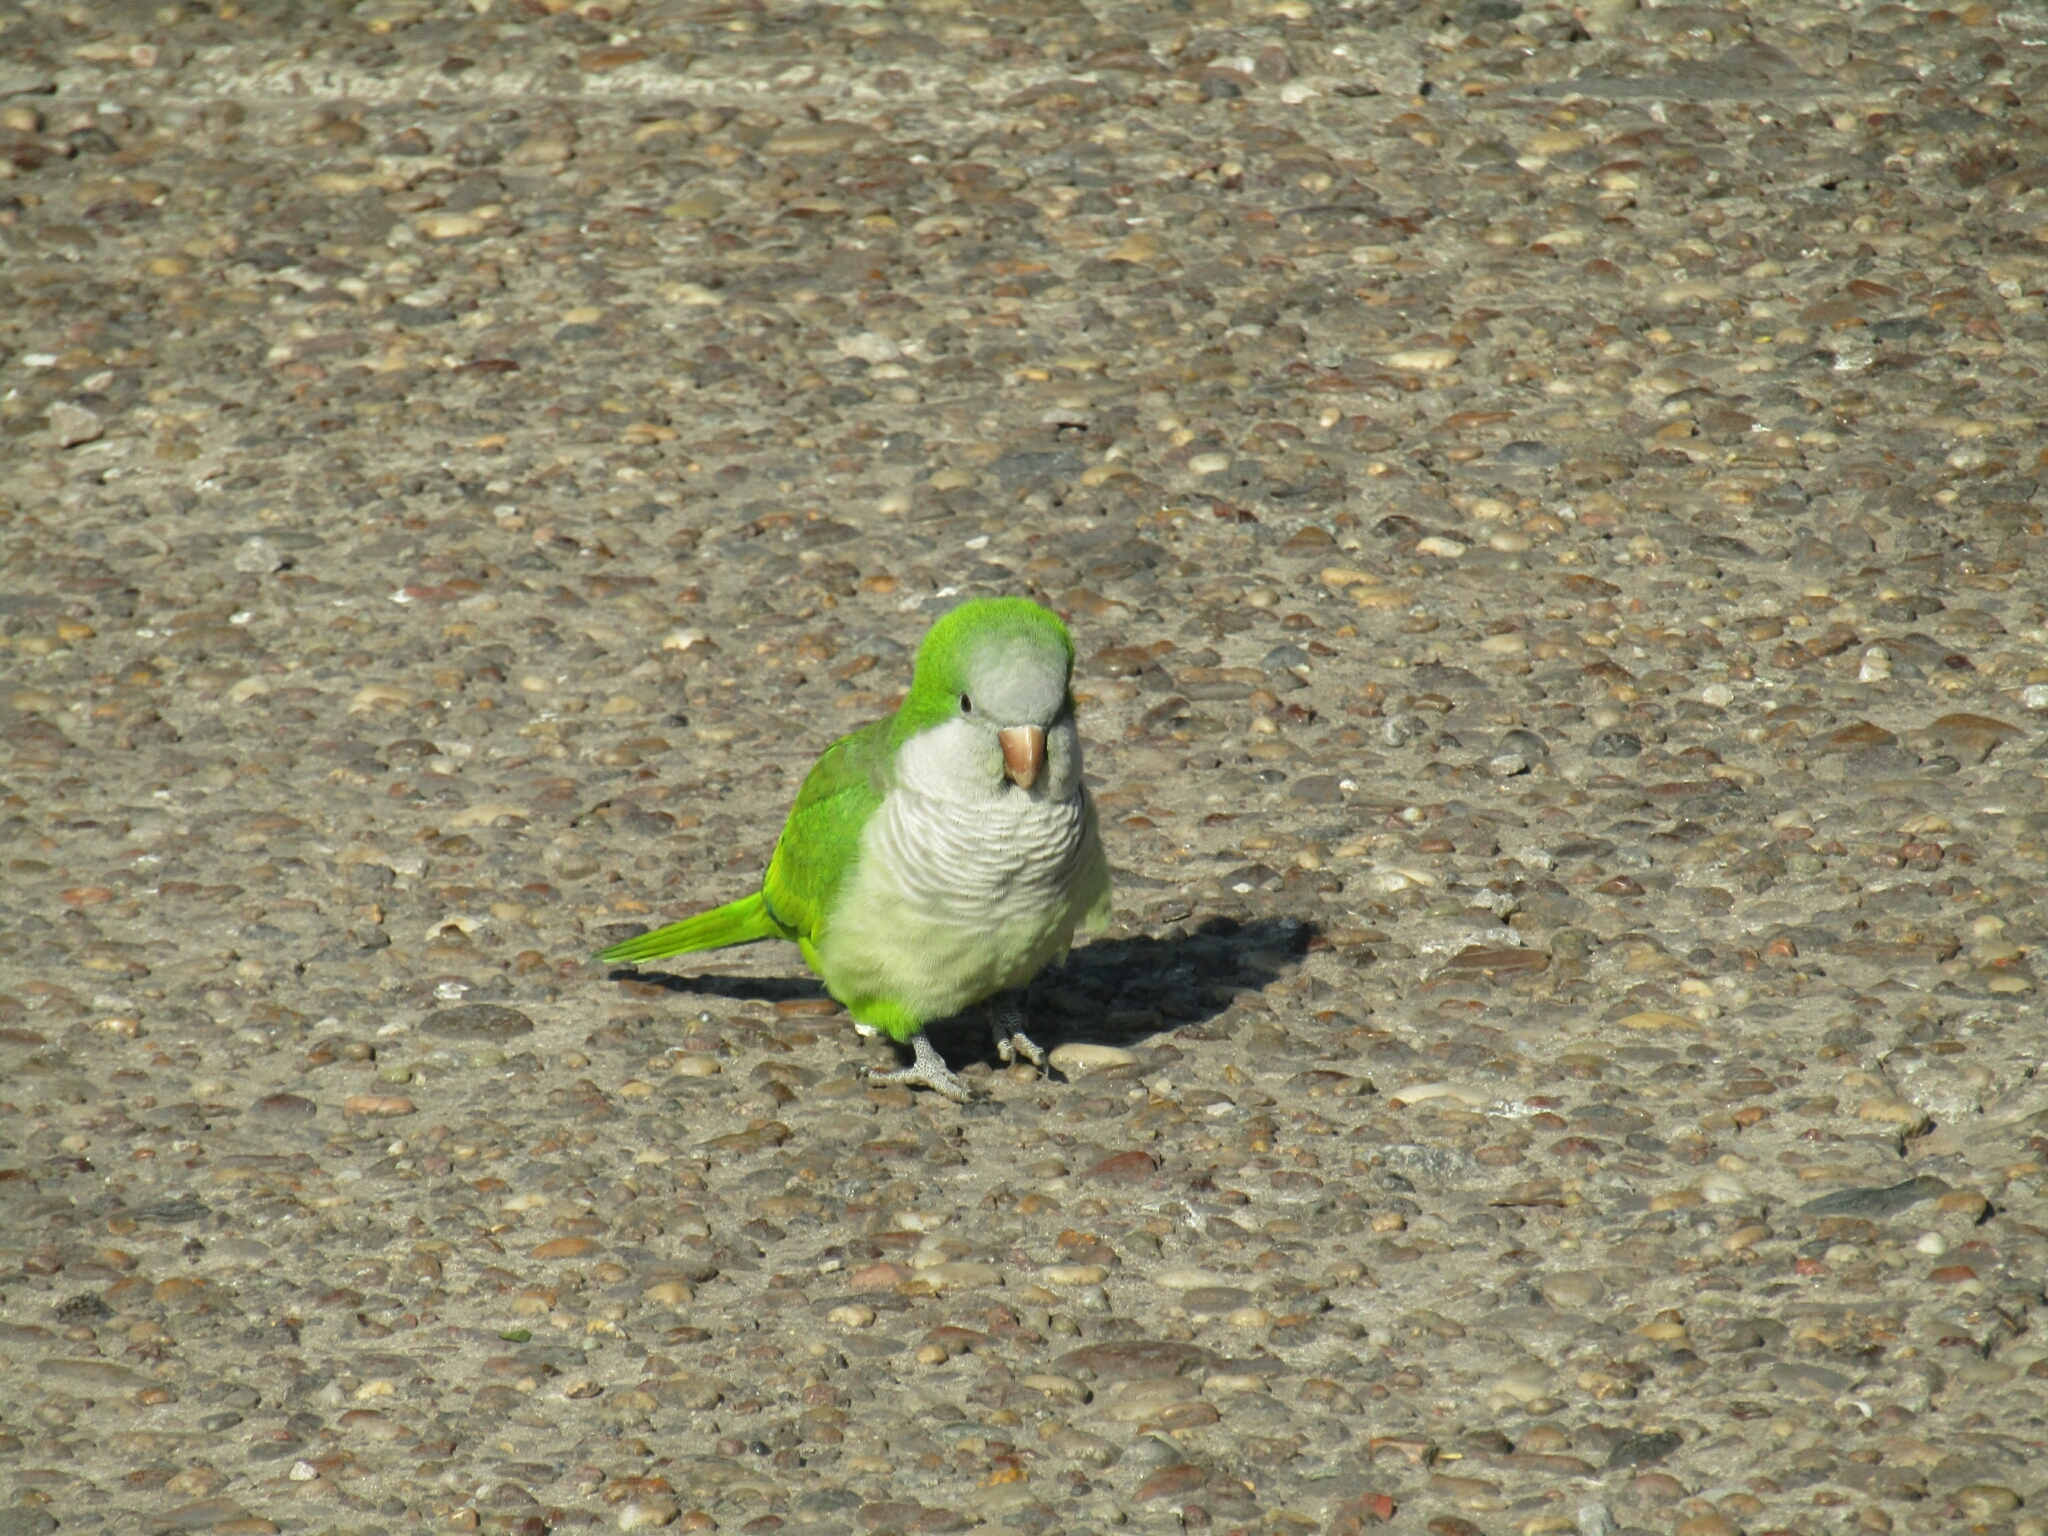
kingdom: Animalia
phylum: Chordata
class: Aves
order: Psittaciformes
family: Psittacidae
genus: Myiopsitta
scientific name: Myiopsitta monachus
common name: Monk parakeet
